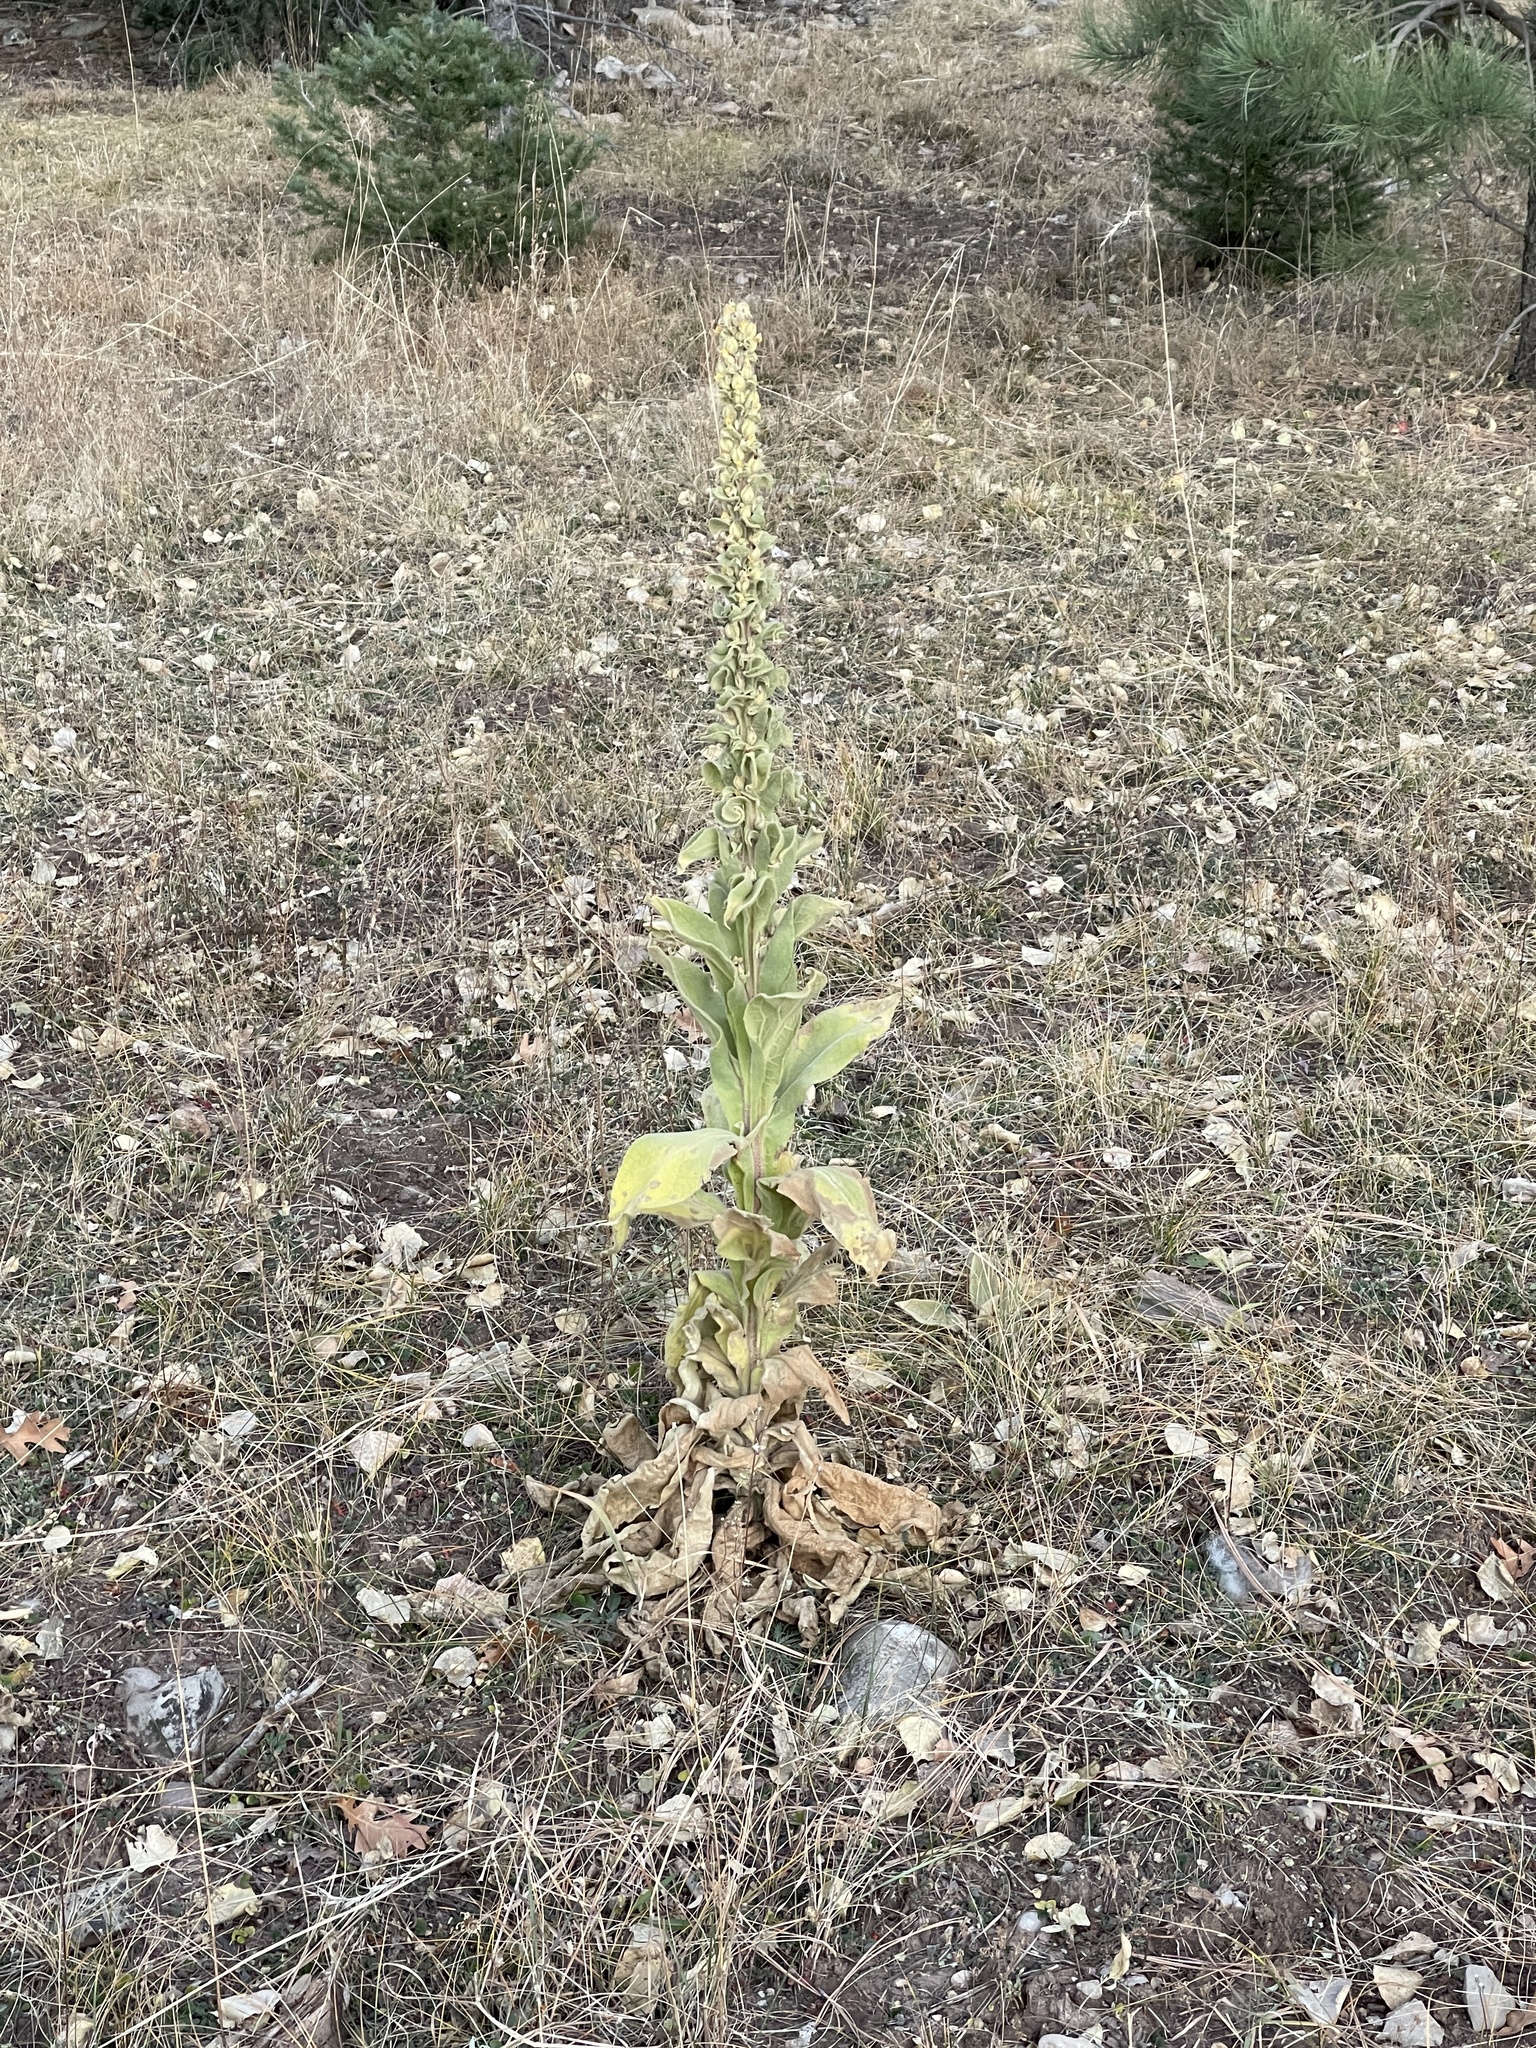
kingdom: Plantae
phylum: Tracheophyta
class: Magnoliopsida
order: Lamiales
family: Scrophulariaceae
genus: Verbascum
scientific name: Verbascum thapsus
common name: Common mullein
